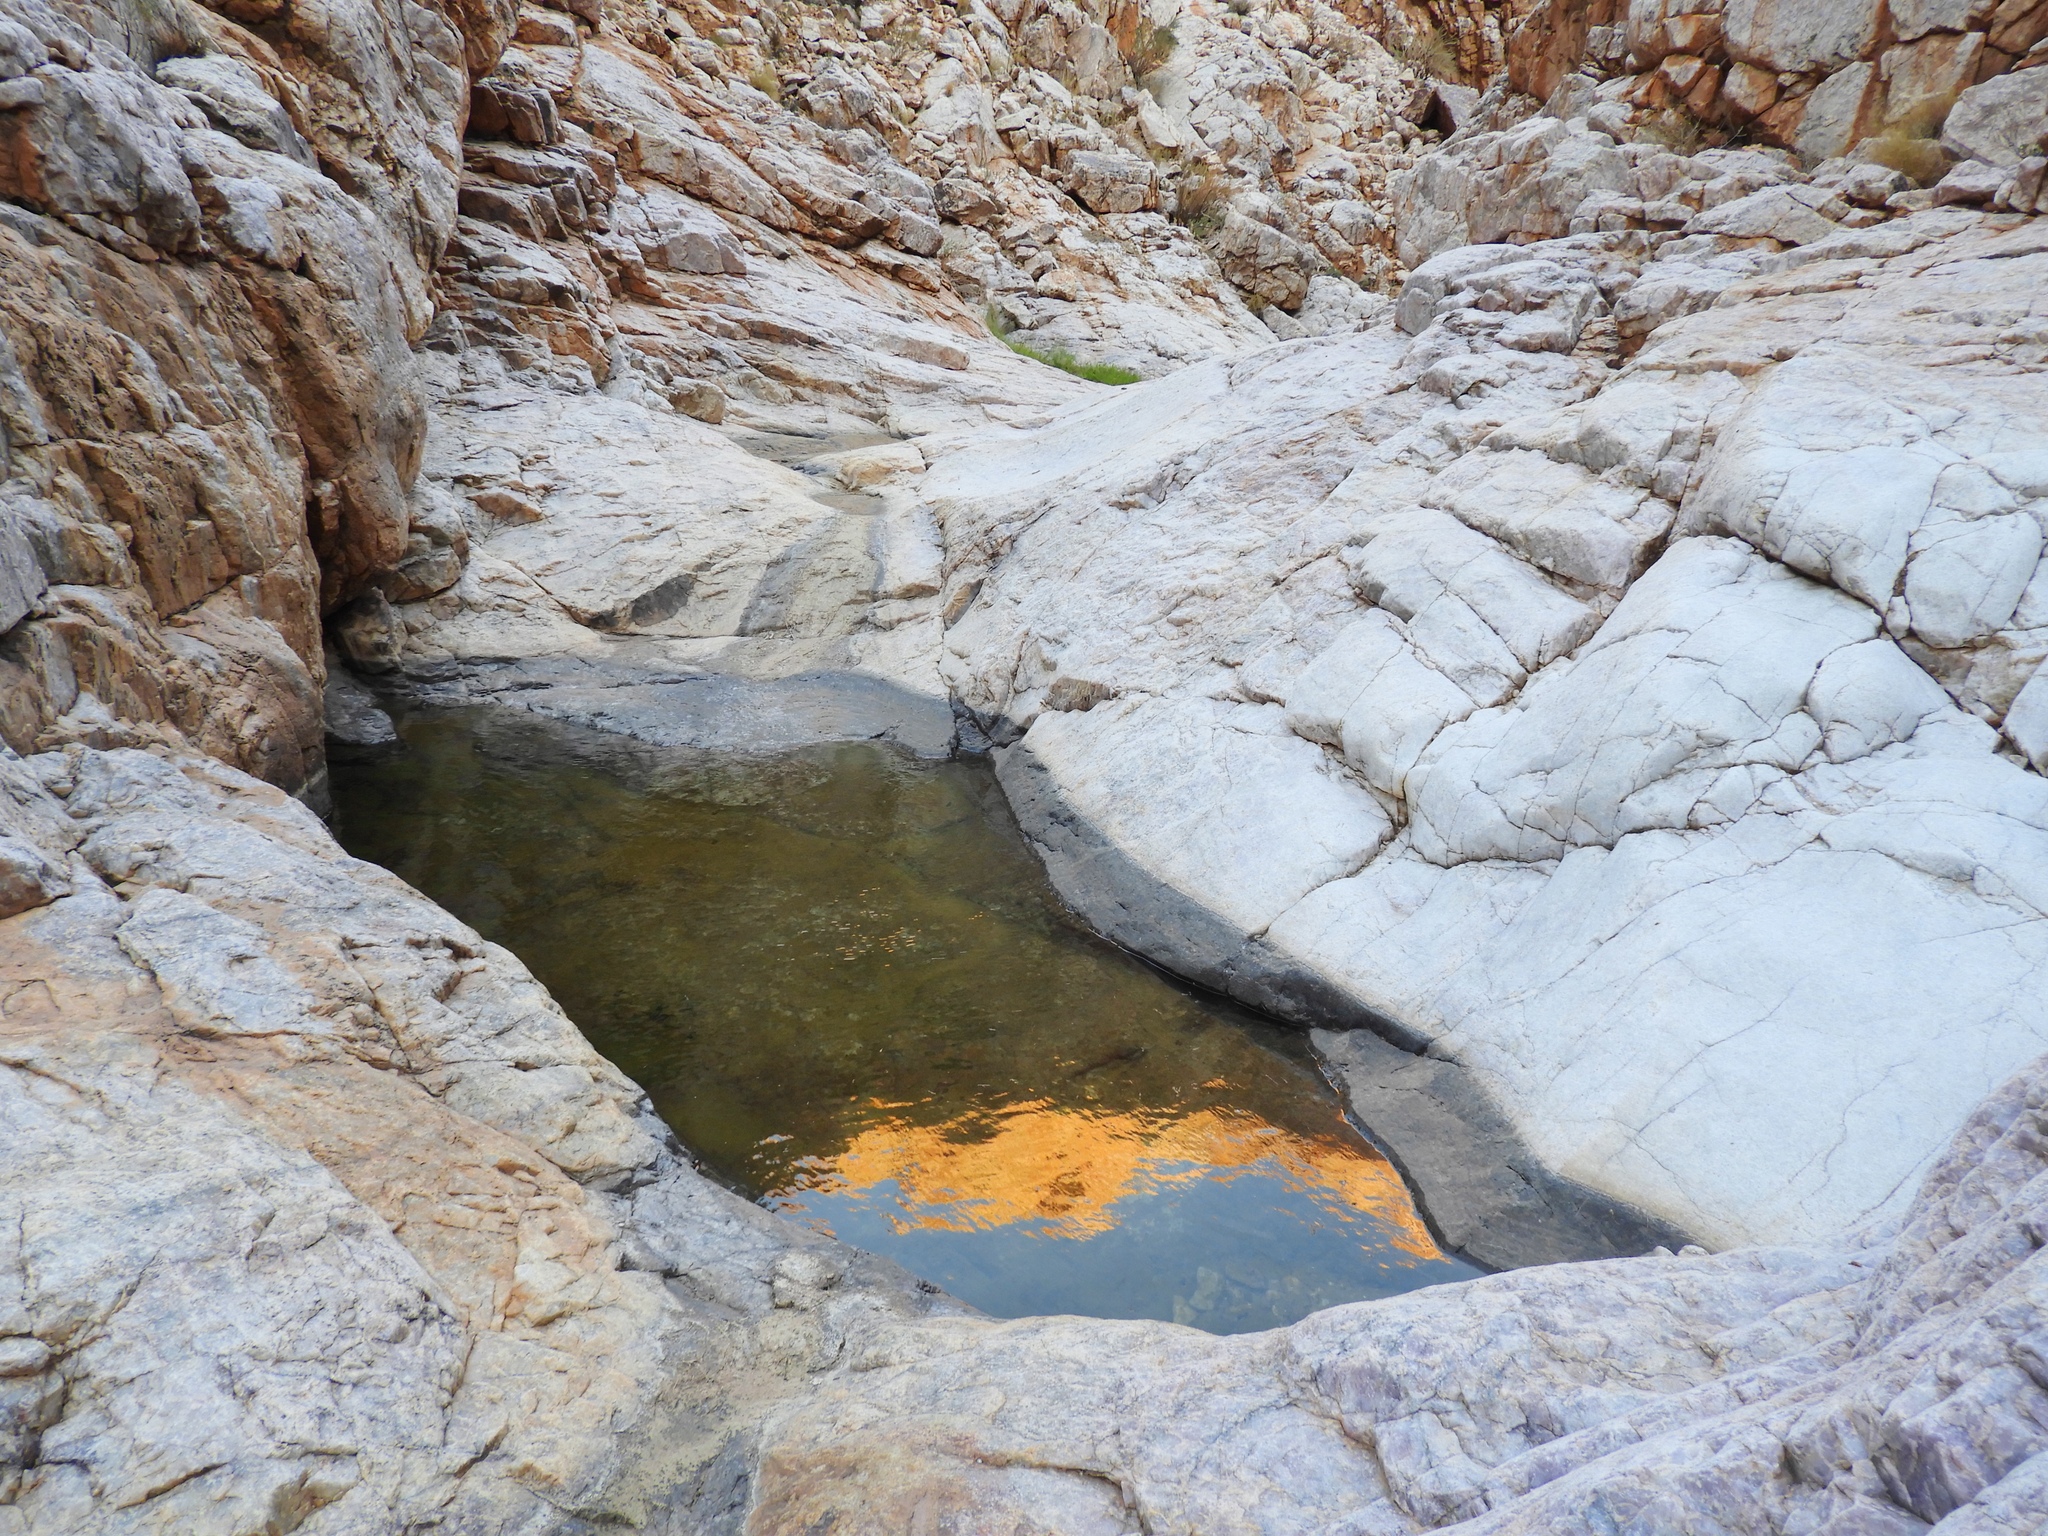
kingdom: Animalia
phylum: Chordata
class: Amphibia
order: Anura
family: Microhylidae
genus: Phrynomantis
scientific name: Phrynomantis annectens
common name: Marbled rubber frog
